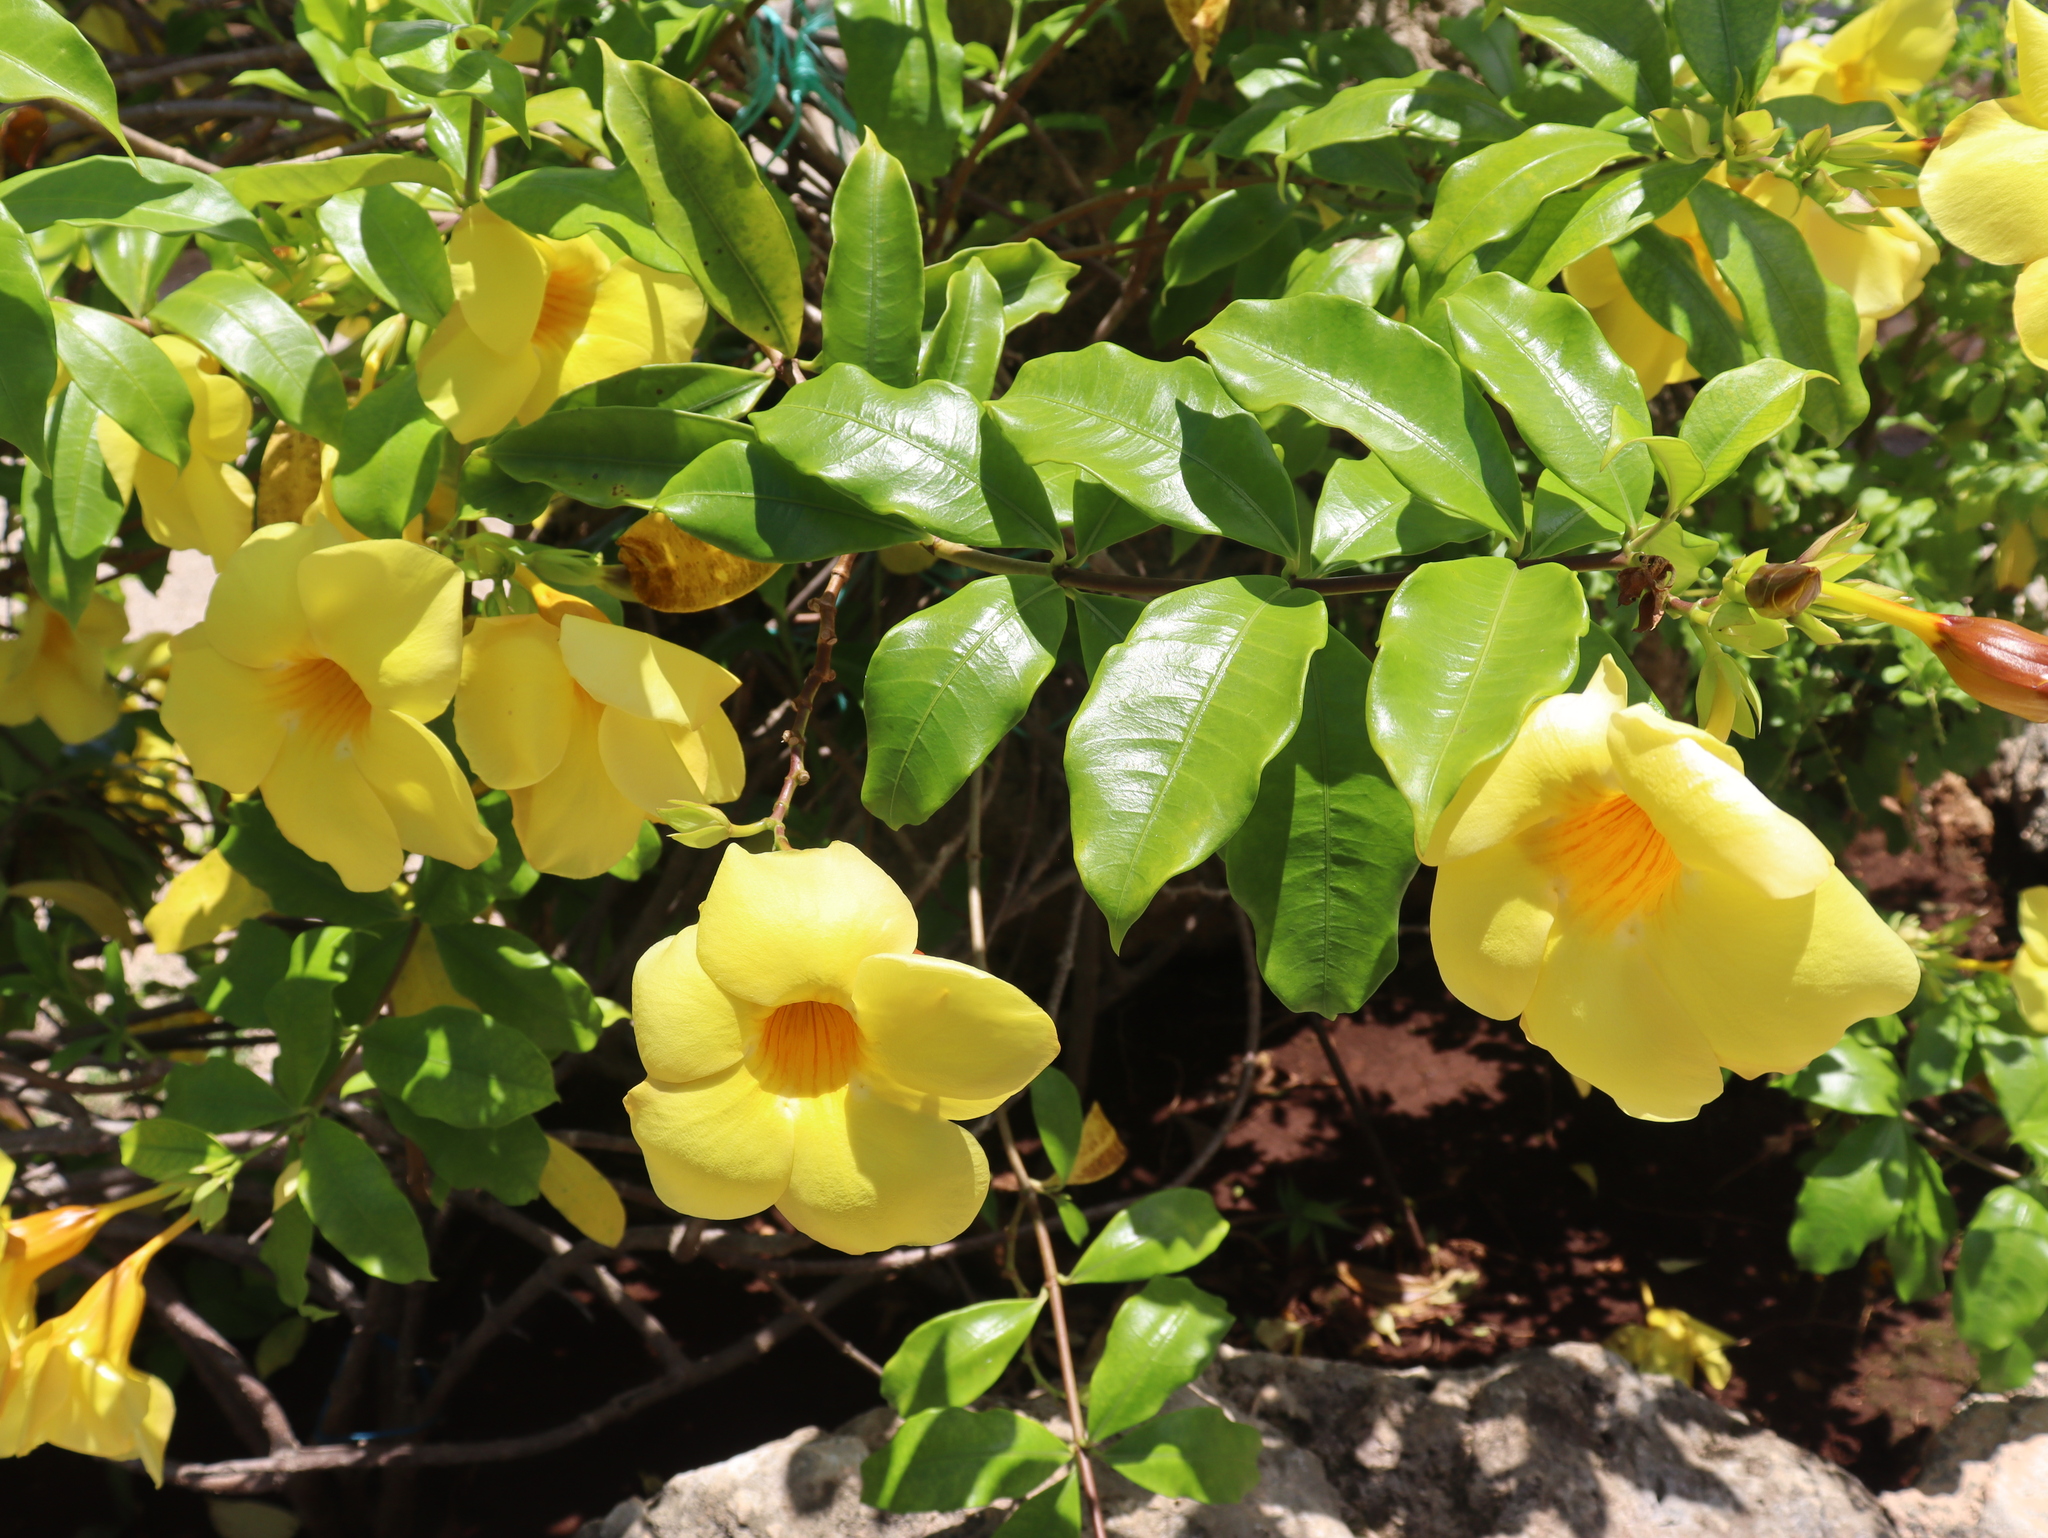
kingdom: Plantae
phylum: Tracheophyta
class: Magnoliopsida
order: Gentianales
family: Apocynaceae
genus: Allamanda
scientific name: Allamanda cathartica
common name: Golden trumpet
